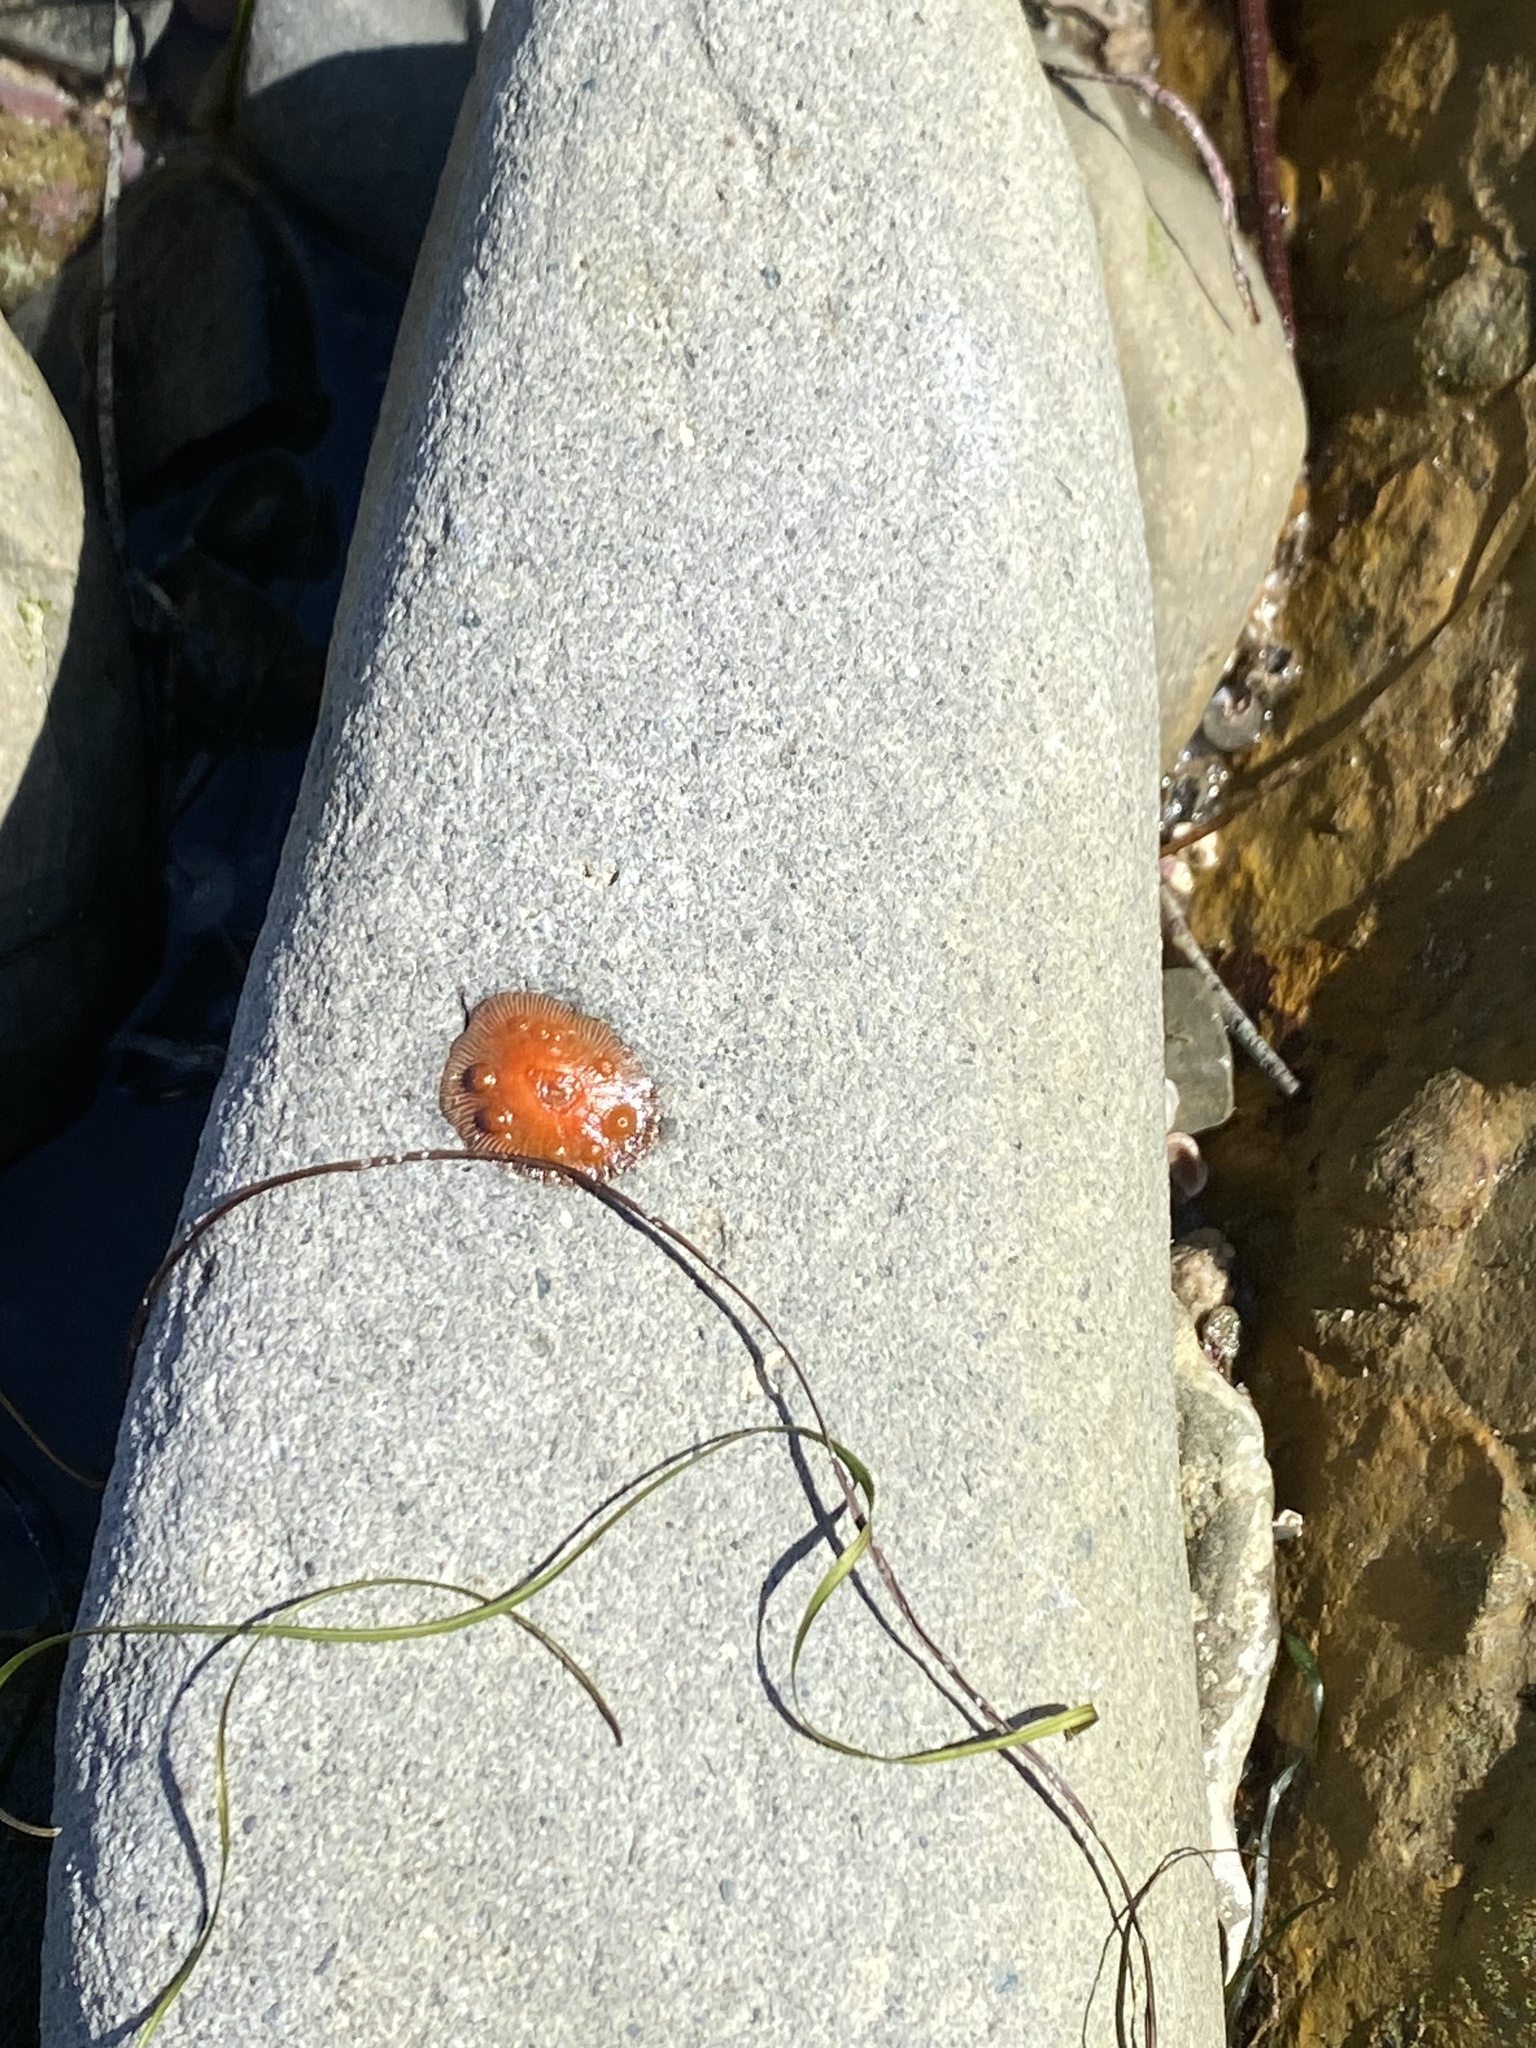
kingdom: Animalia
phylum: Cnidaria
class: Anthozoa
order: Actiniaria
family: Actiniidae
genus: Epiactis
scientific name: Epiactis prolifera
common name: Brooding anemone
